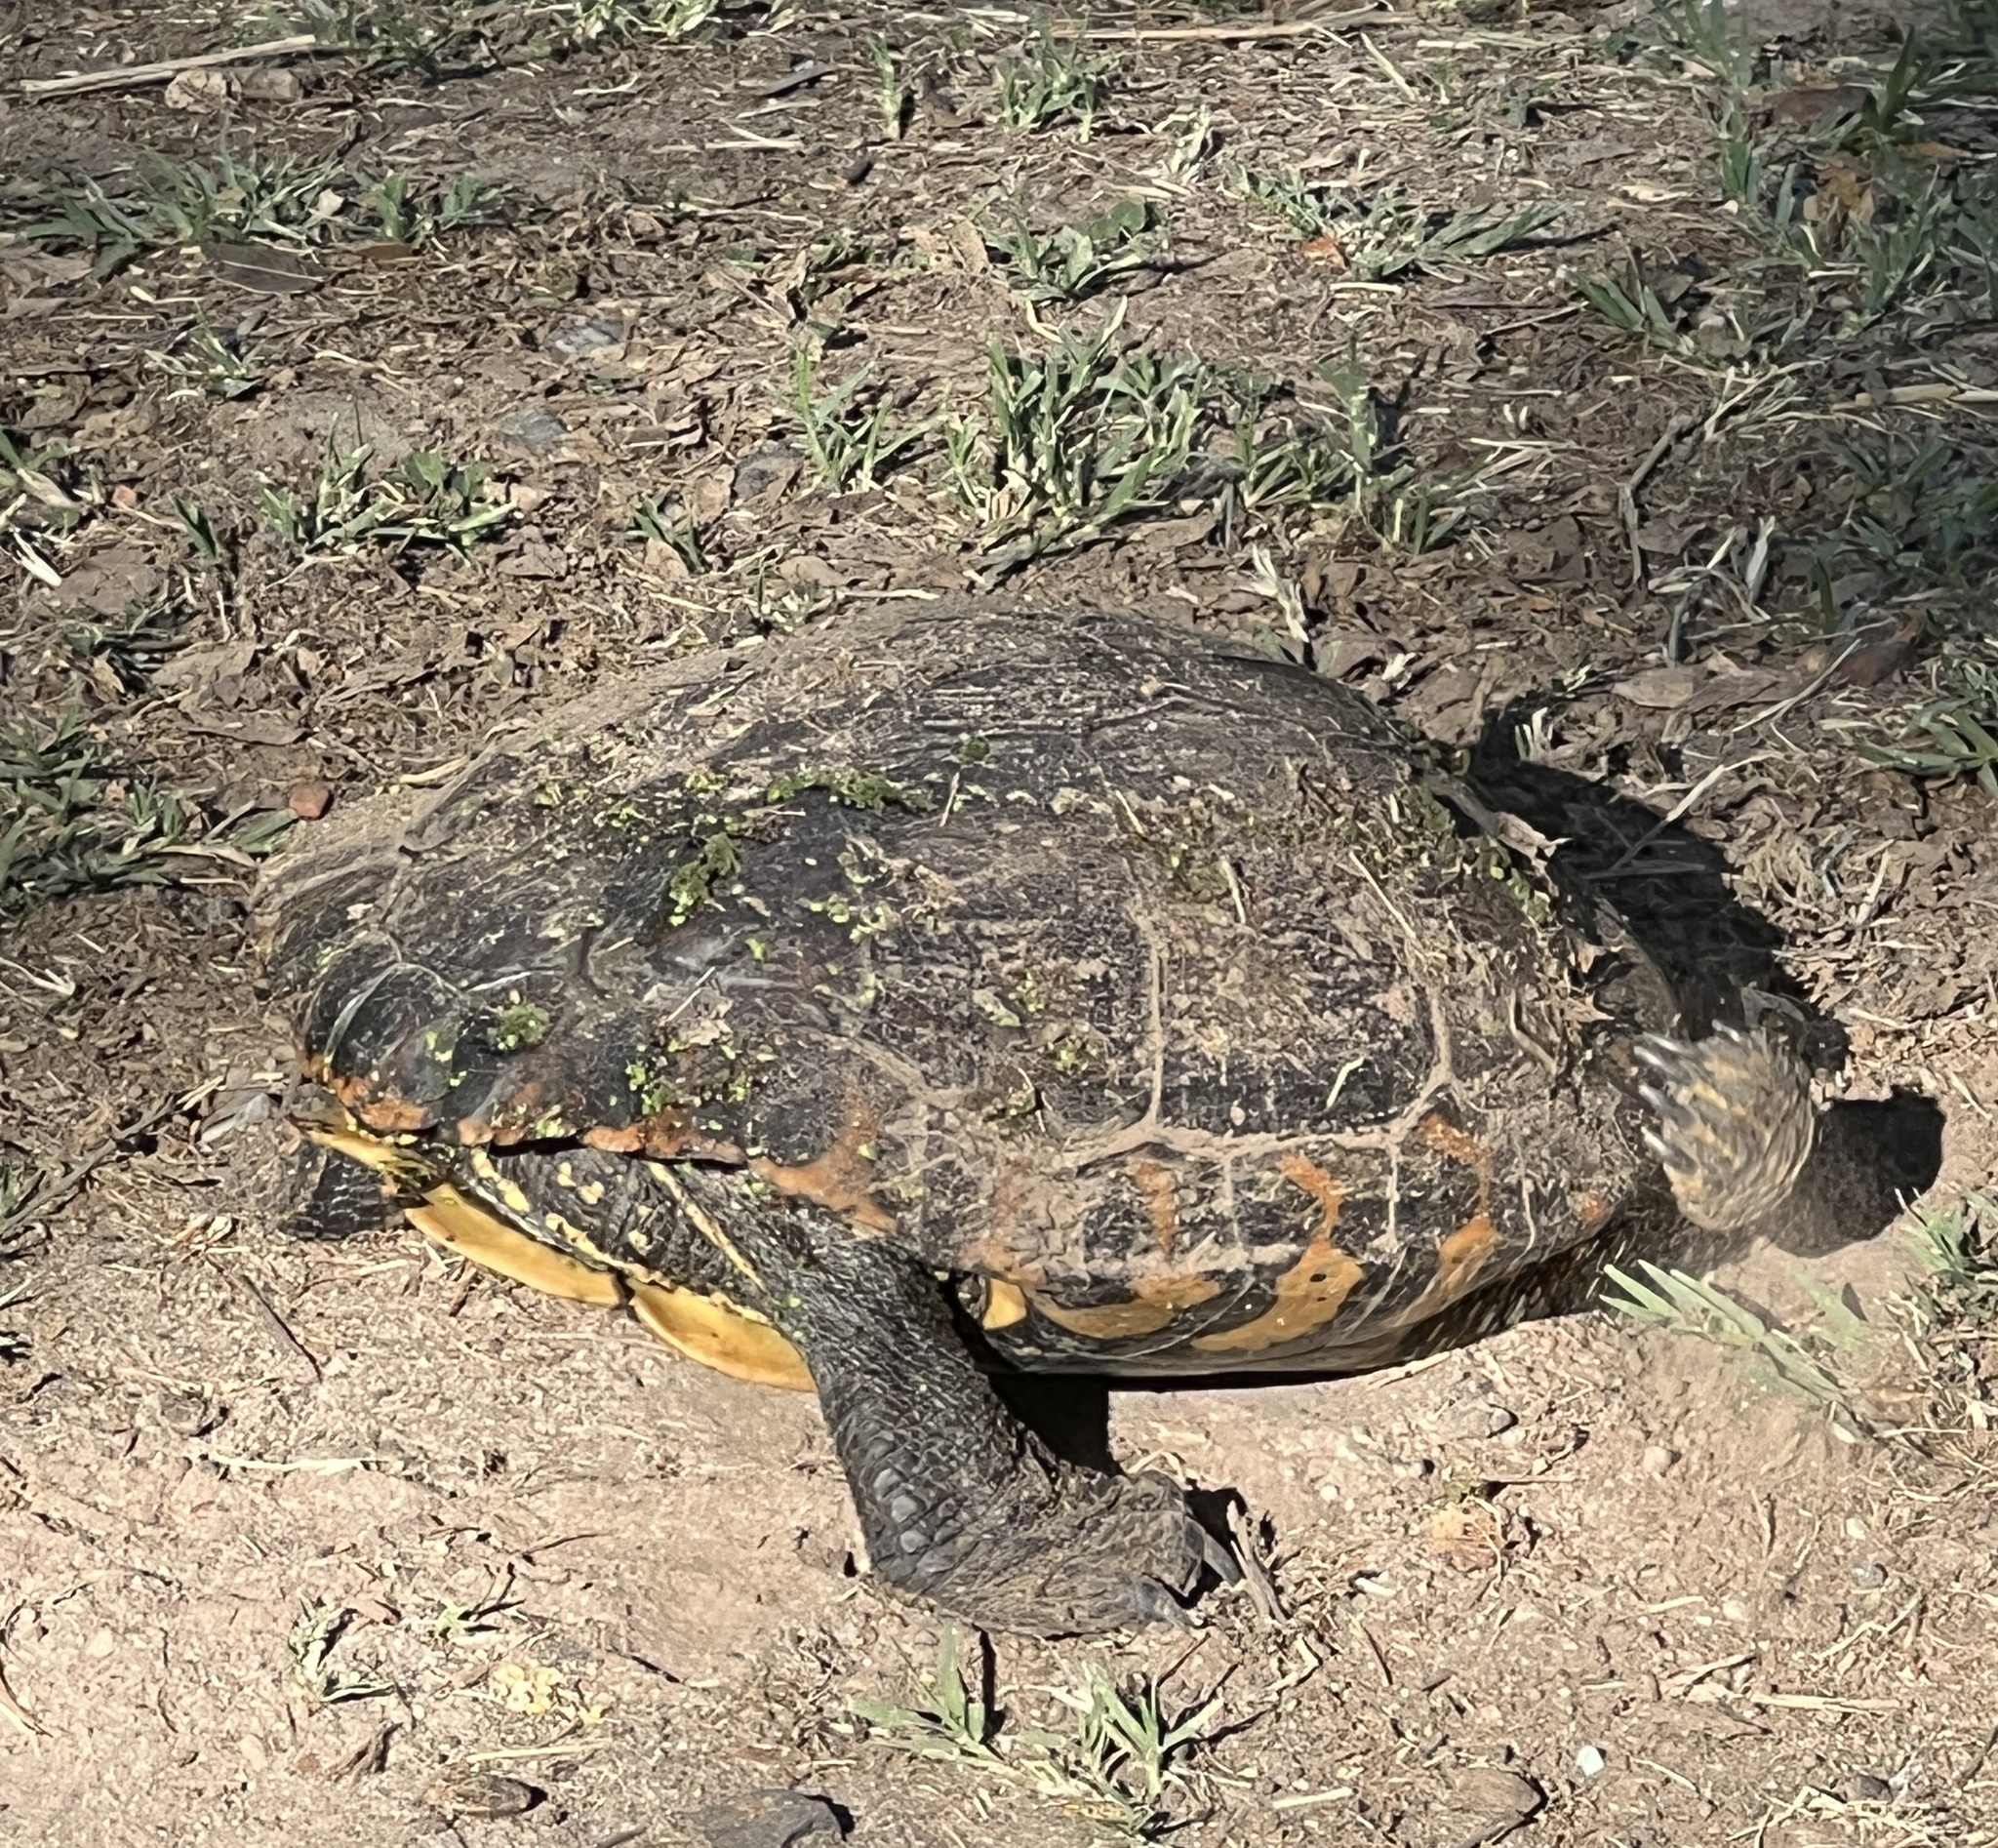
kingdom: Animalia
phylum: Chordata
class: Testudines
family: Emydidae
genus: Trachemys
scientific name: Trachemys dorbigni
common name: Black-bellied slider
